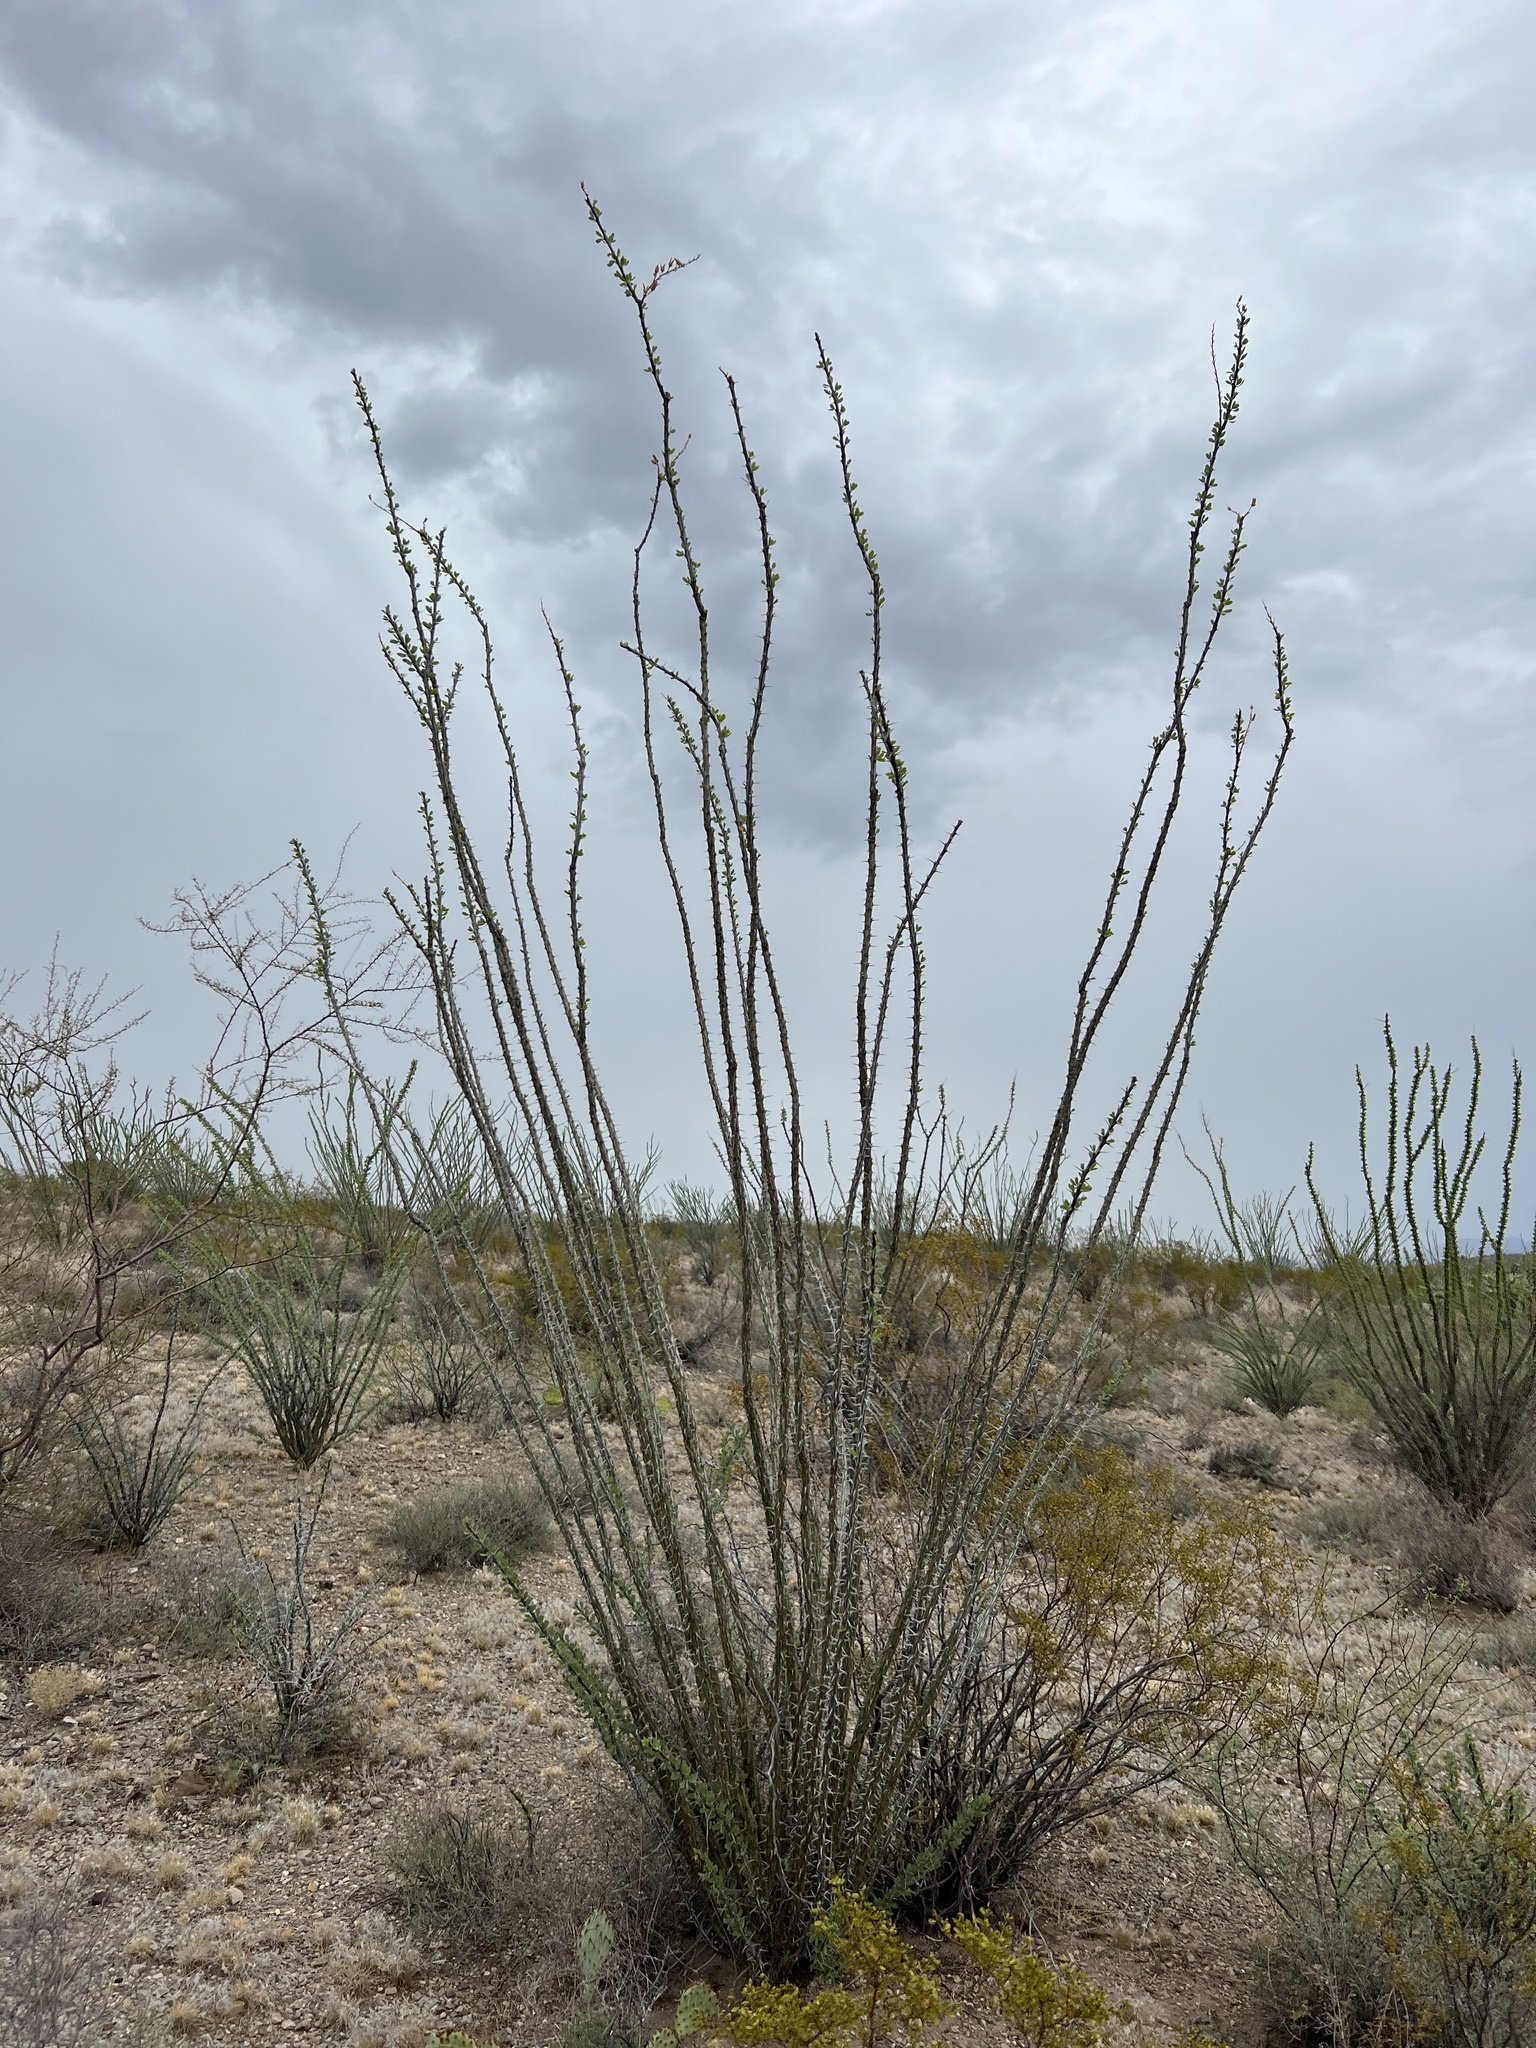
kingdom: Plantae
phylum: Tracheophyta
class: Magnoliopsida
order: Ericales
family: Fouquieriaceae
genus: Fouquieria
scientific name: Fouquieria splendens
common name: Vine-cactus
